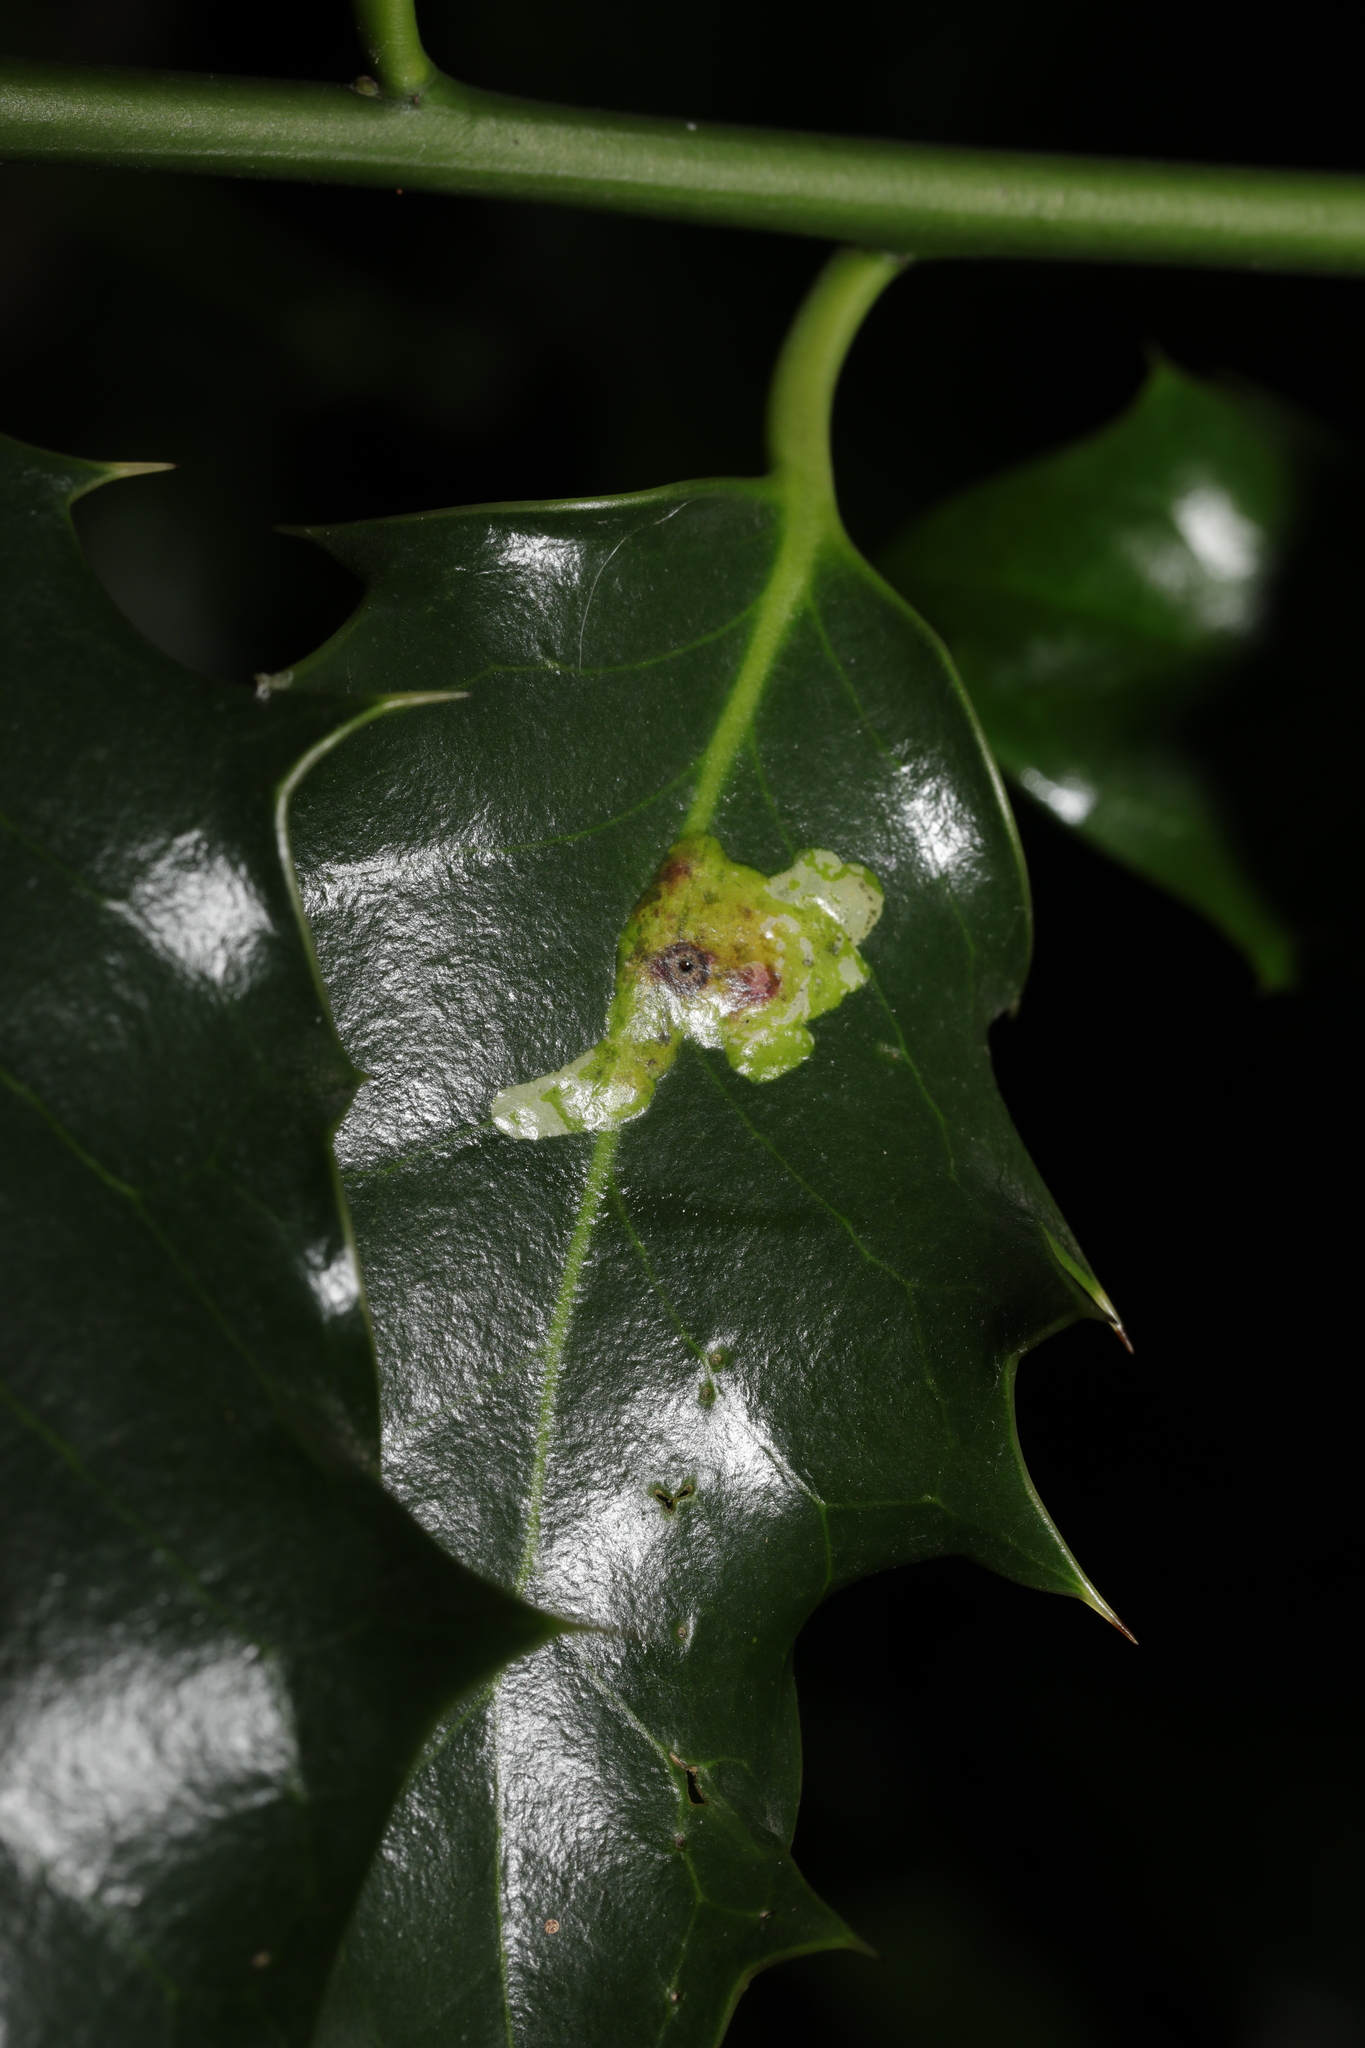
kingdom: Animalia
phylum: Arthropoda
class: Insecta
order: Diptera
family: Agromyzidae
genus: Phytomyza
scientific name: Phytomyza ilicis
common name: Holly leafminer
